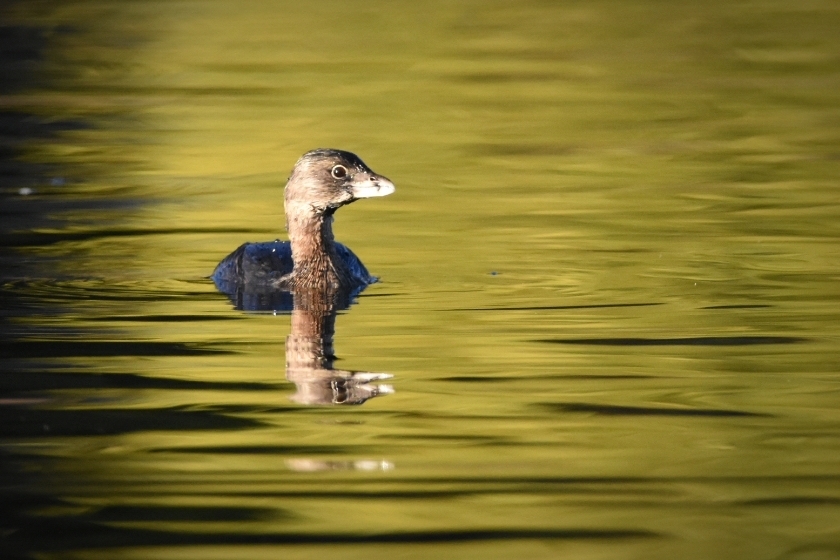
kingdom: Animalia
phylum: Chordata
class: Aves
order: Podicipediformes
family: Podicipedidae
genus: Podilymbus
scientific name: Podilymbus podiceps
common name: Pied-billed grebe
